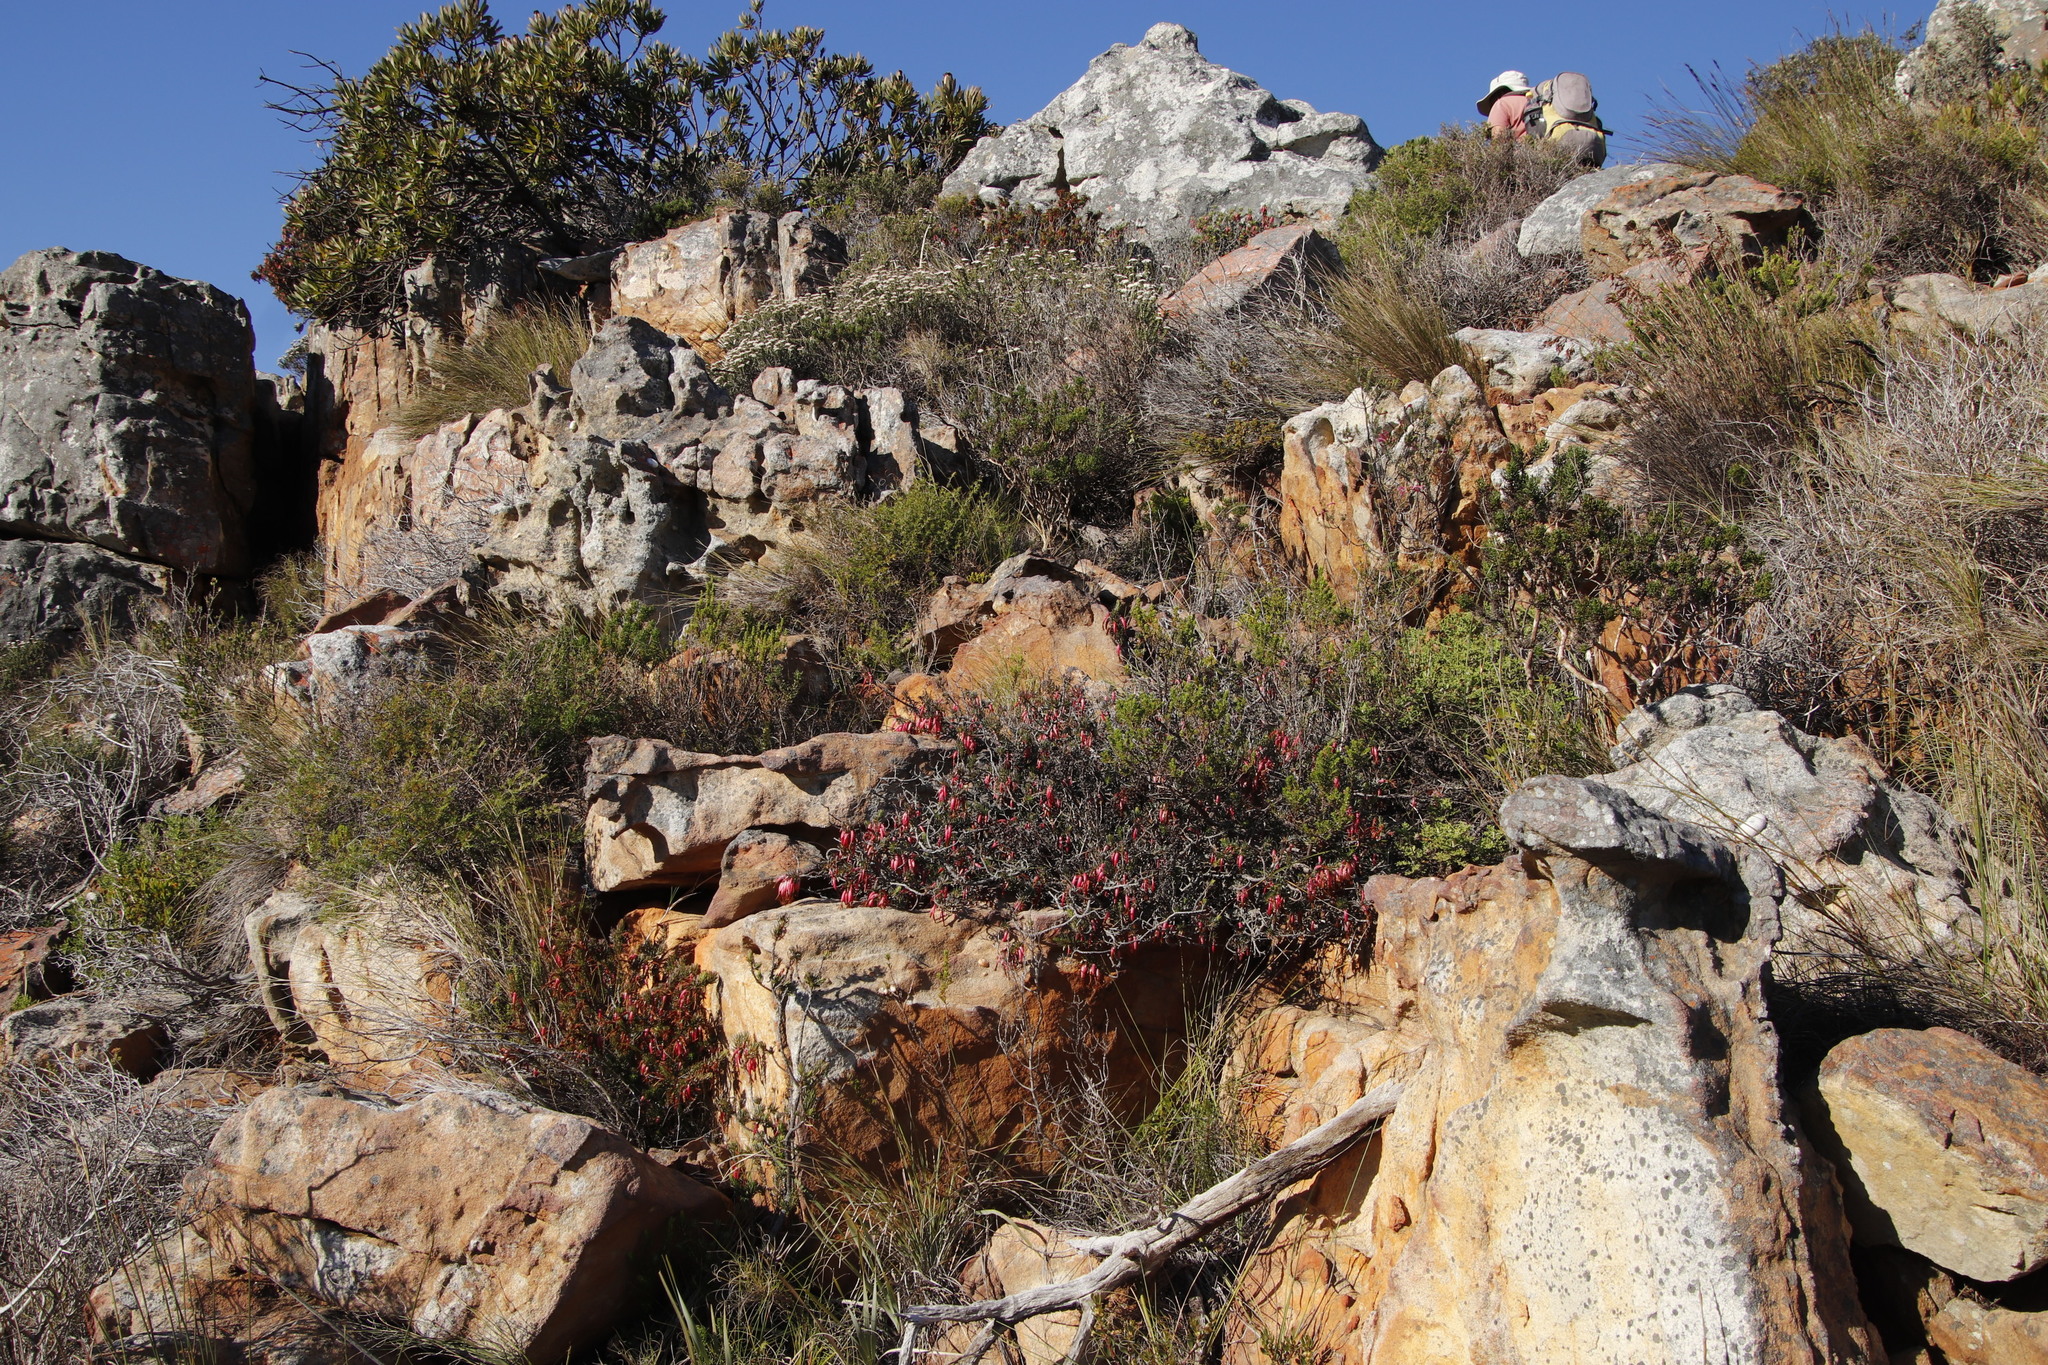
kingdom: Plantae
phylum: Tracheophyta
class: Magnoliopsida
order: Ericales
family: Ericaceae
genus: Erica
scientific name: Erica plukenetii
